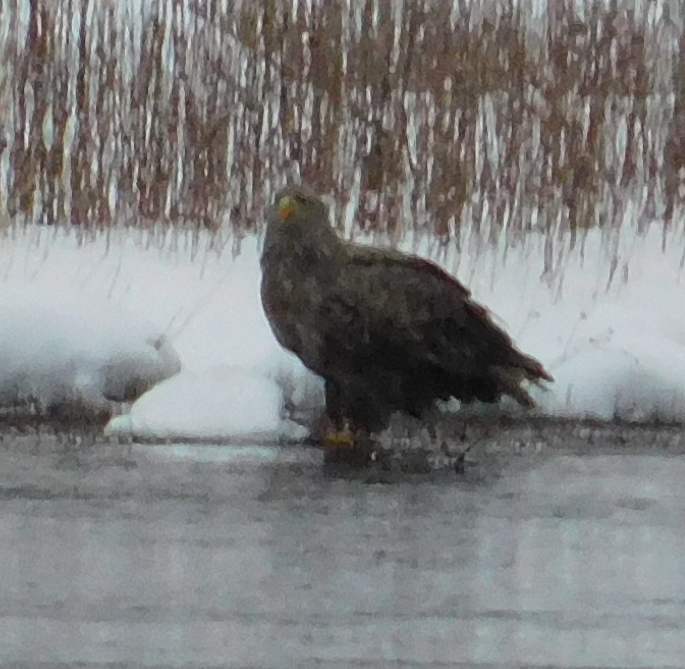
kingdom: Animalia
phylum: Chordata
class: Aves
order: Accipitriformes
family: Accipitridae
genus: Haliaeetus
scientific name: Haliaeetus albicilla
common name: White-tailed eagle
